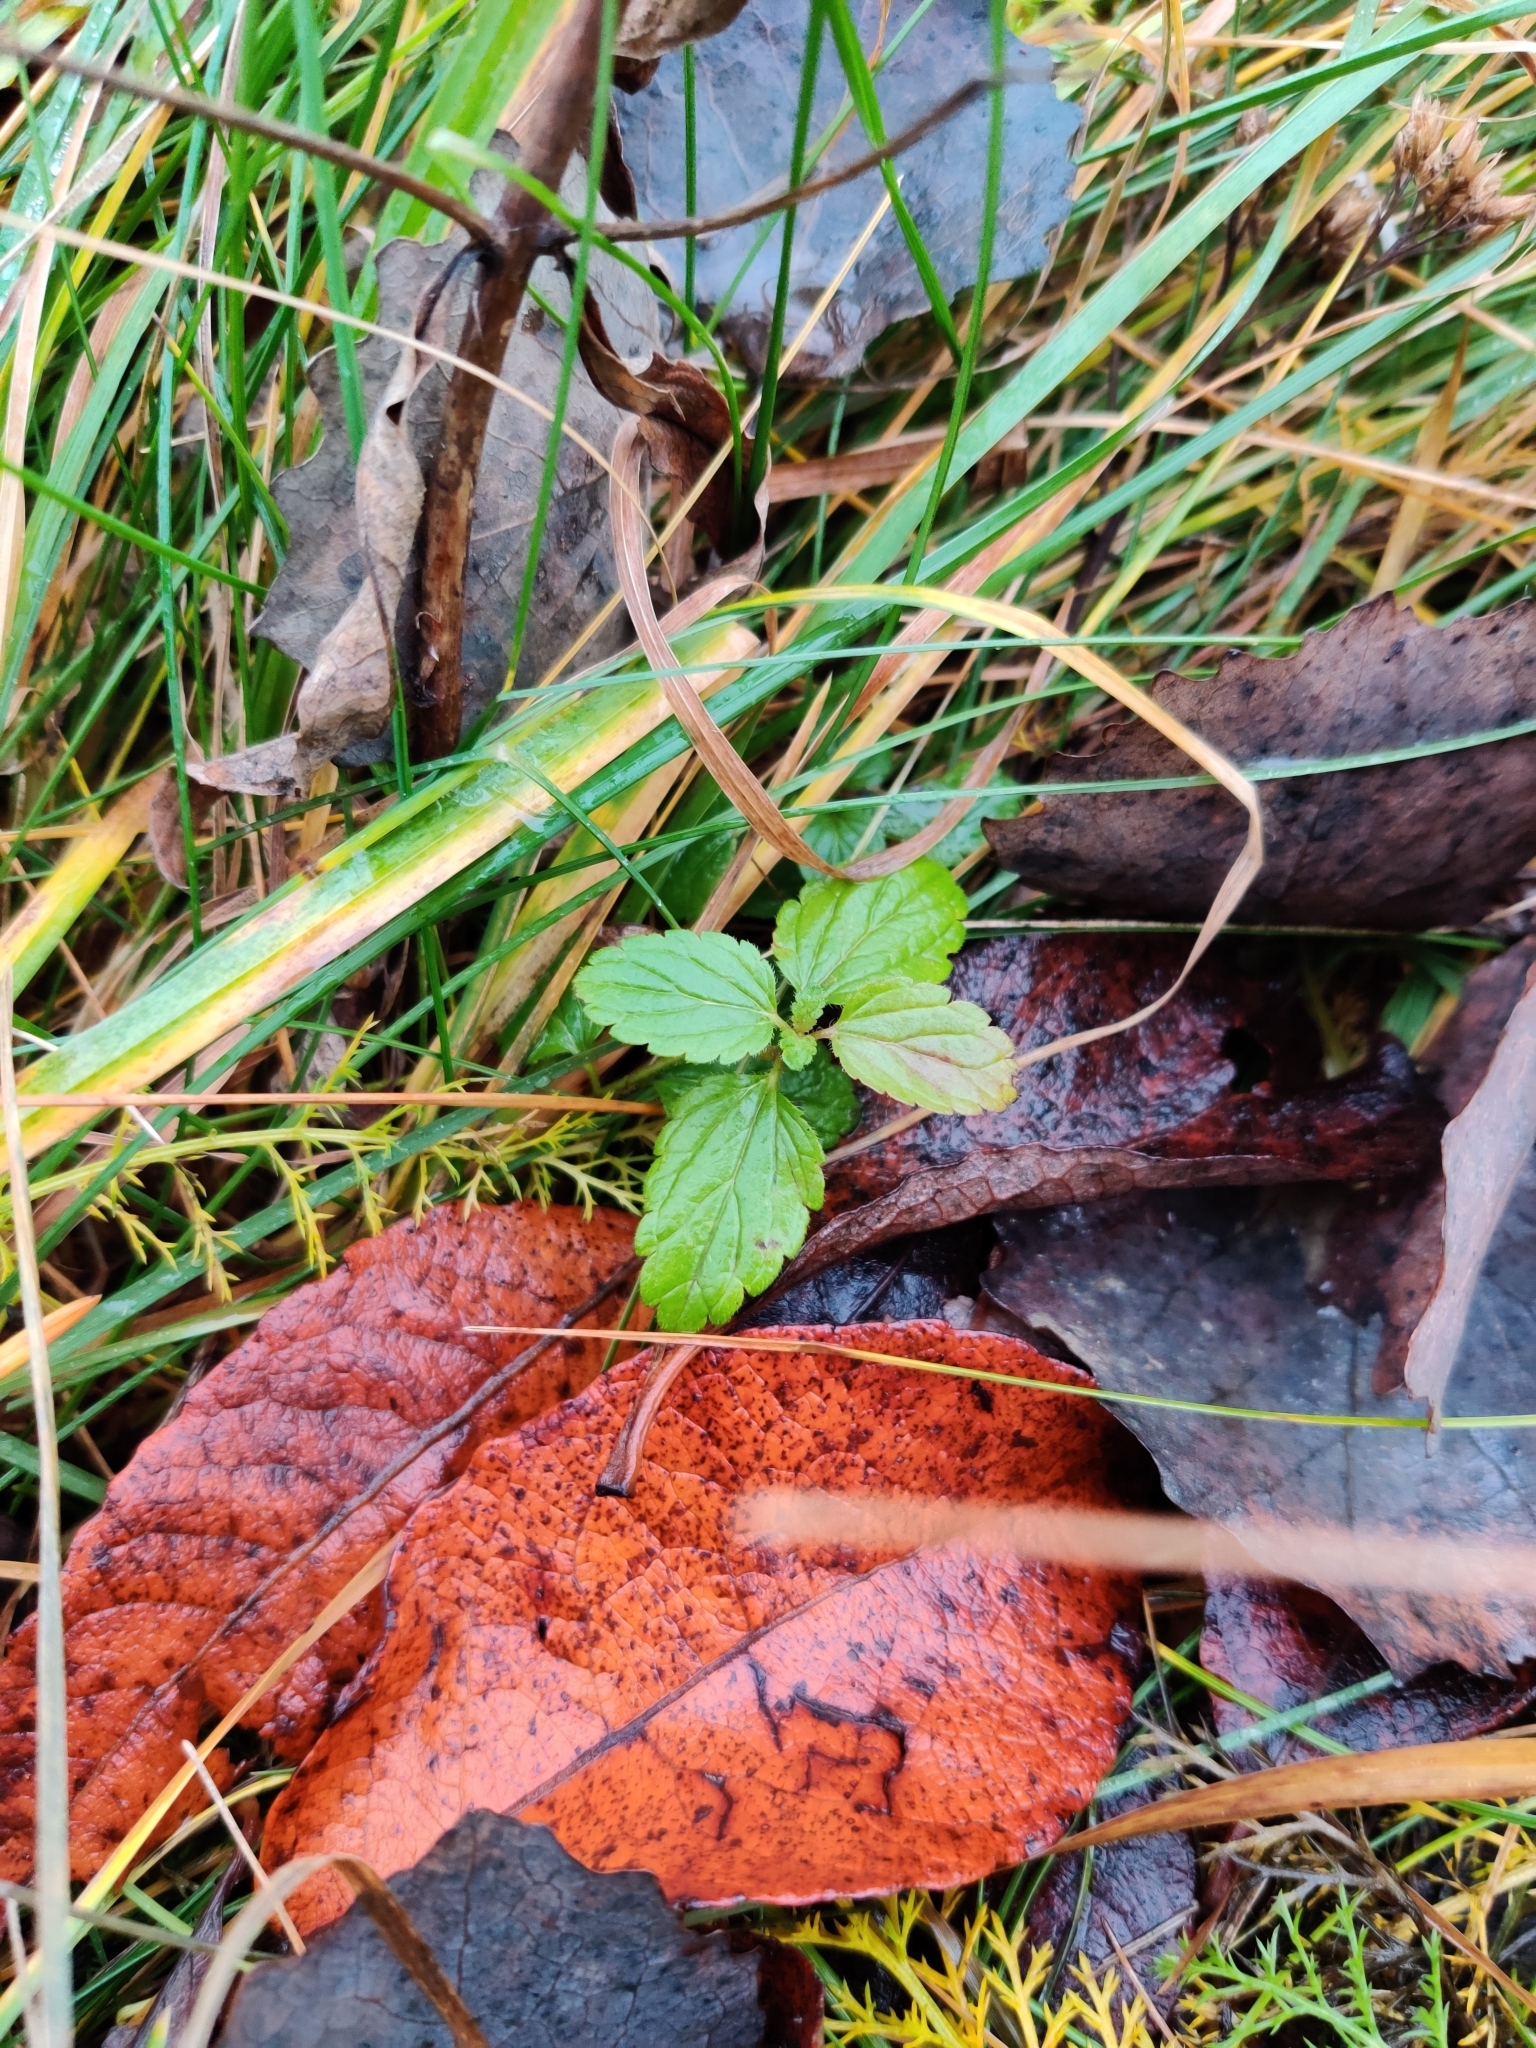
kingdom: Plantae
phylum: Tracheophyta
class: Magnoliopsida
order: Lamiales
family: Plantaginaceae
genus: Veronica
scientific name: Veronica chamaedrys
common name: Germander speedwell
